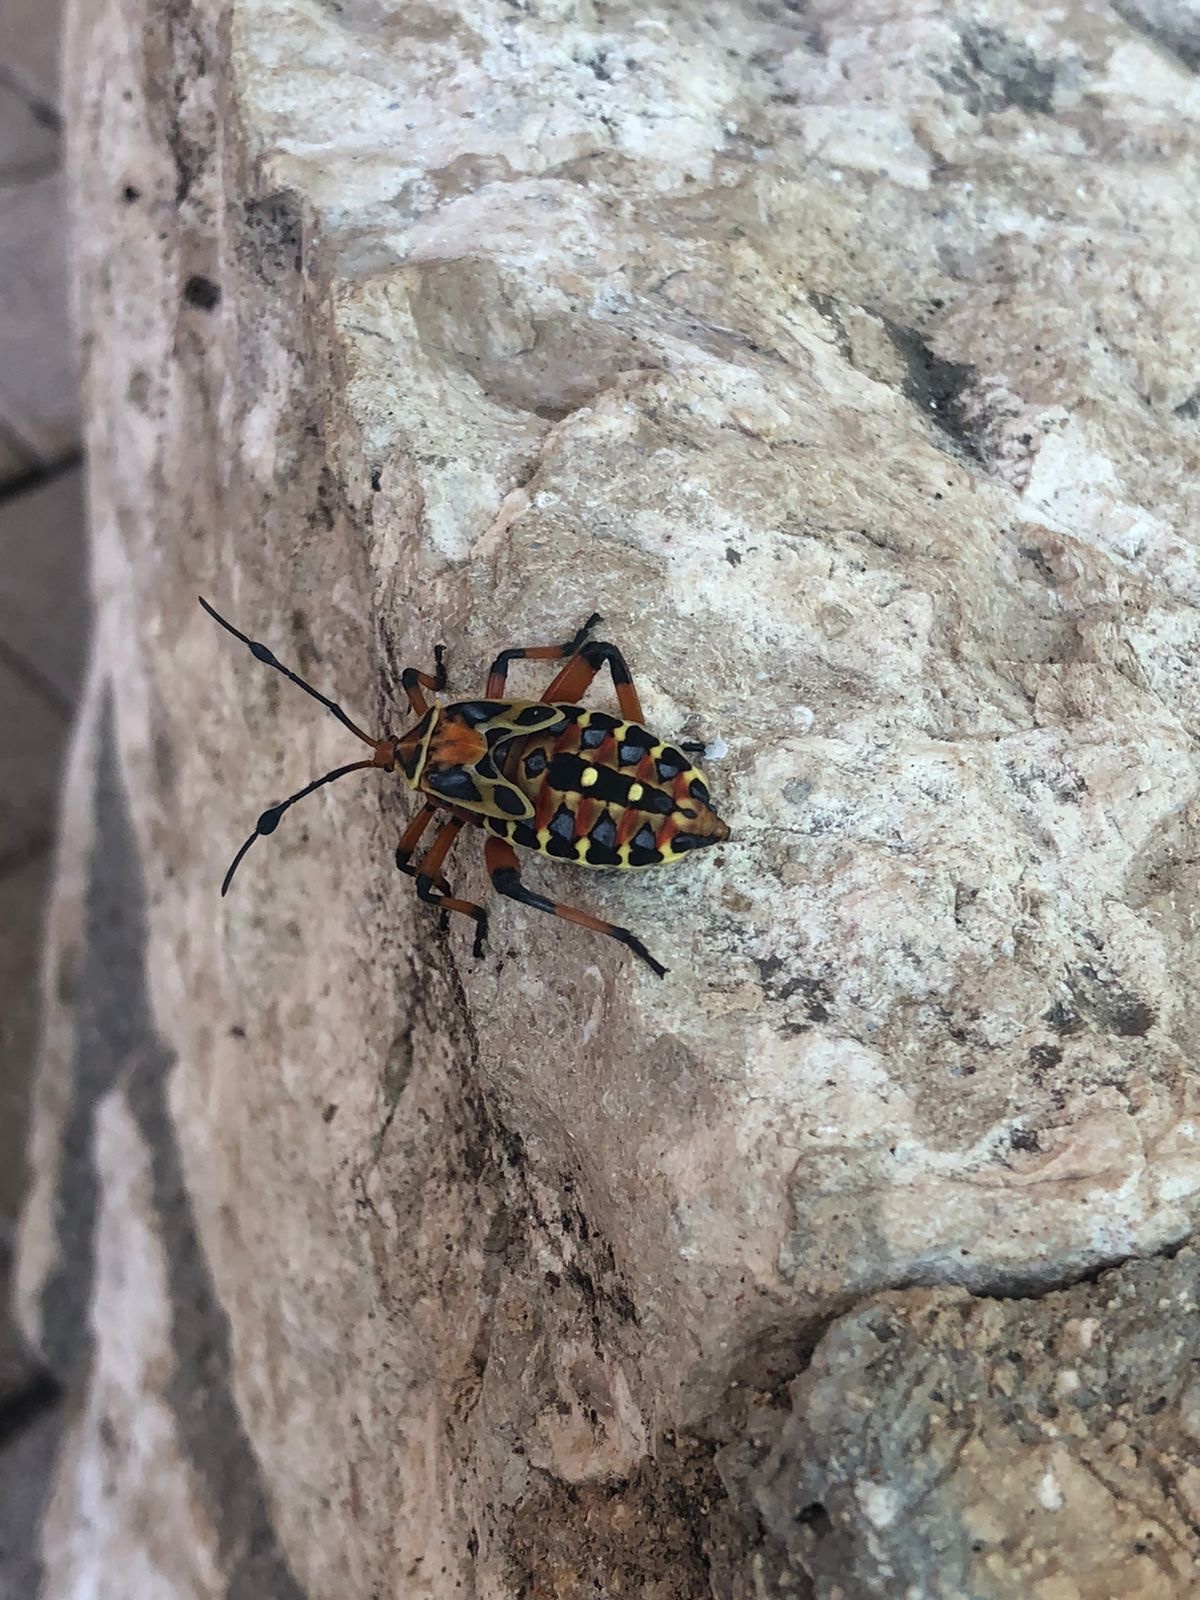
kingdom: Animalia
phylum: Arthropoda
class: Insecta
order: Hemiptera
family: Coreidae
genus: Pachylis
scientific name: Pachylis nervosus
